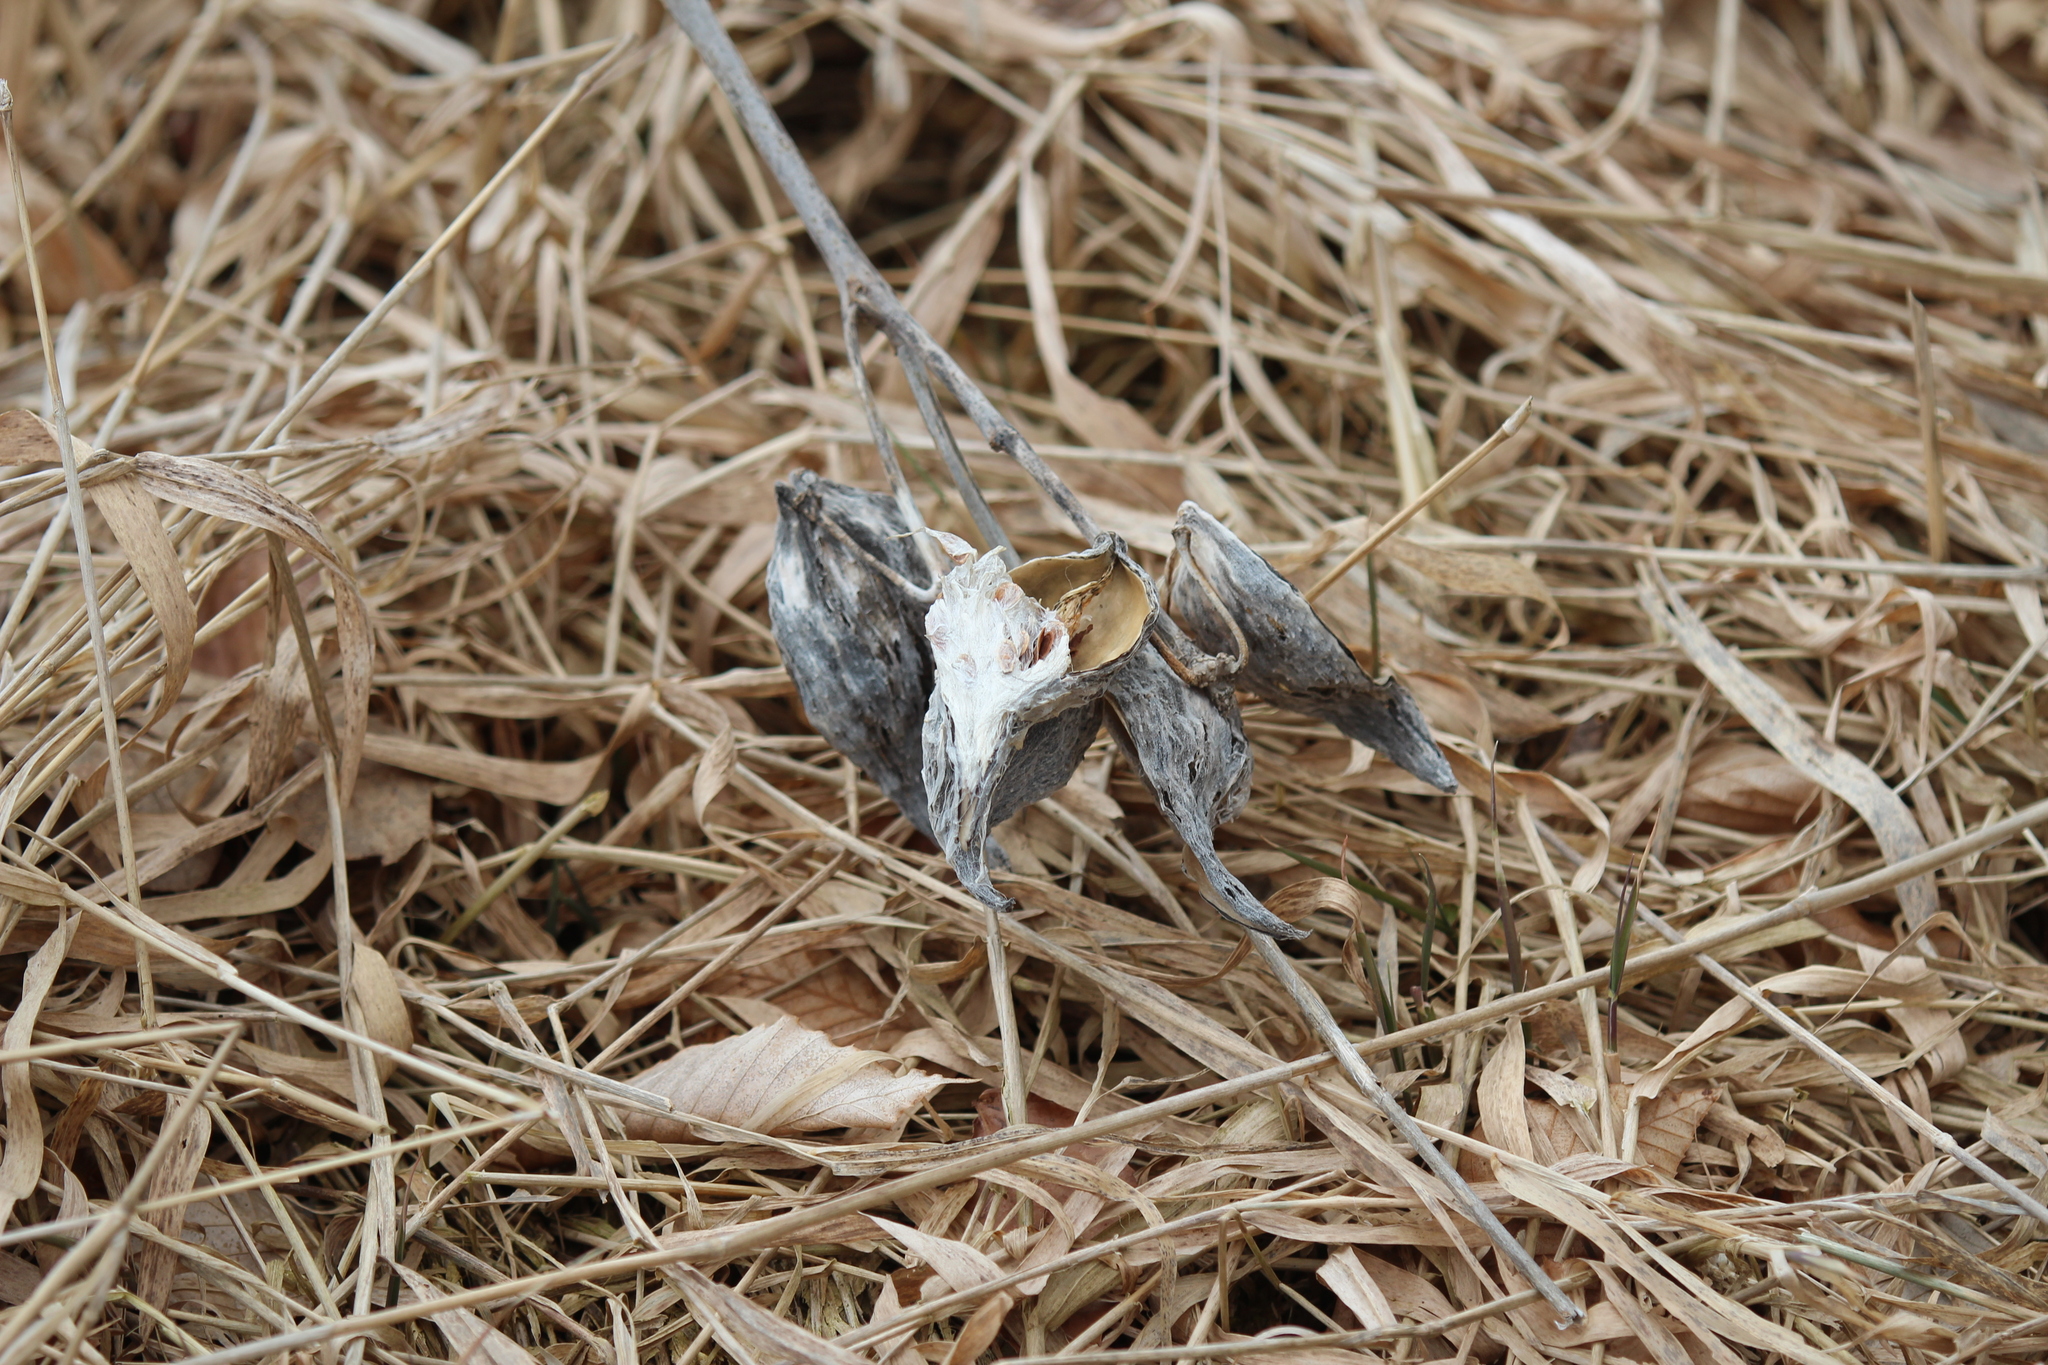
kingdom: Plantae
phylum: Tracheophyta
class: Magnoliopsida
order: Gentianales
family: Apocynaceae
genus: Asclepias
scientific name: Asclepias syriaca
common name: Common milkweed
